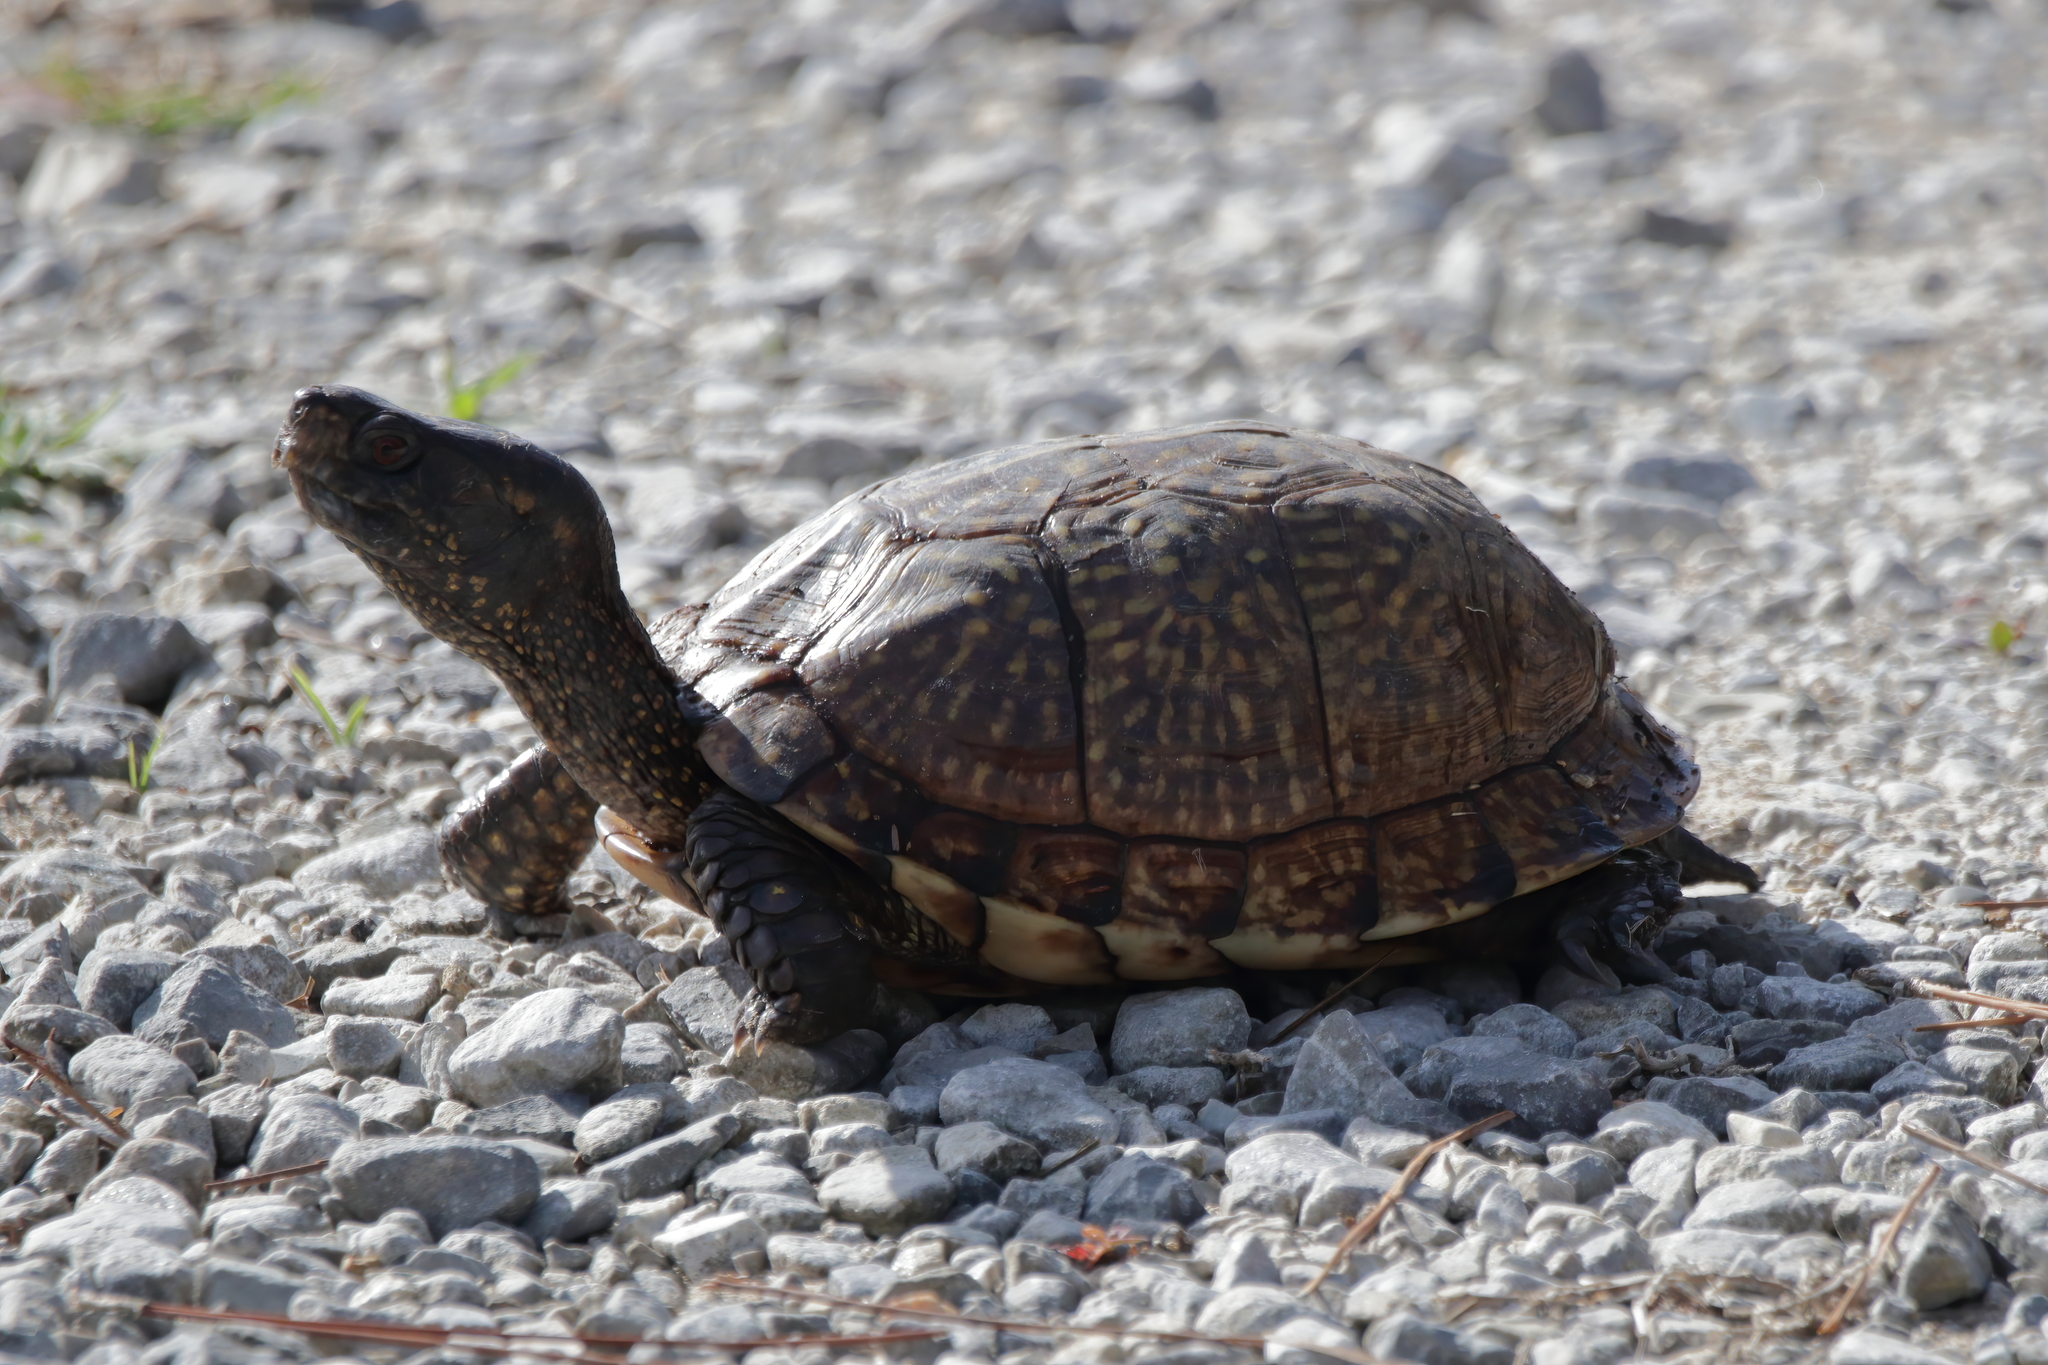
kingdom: Animalia
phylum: Chordata
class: Testudines
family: Emydidae
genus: Terrapene
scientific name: Terrapene carolina
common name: Common box turtle
